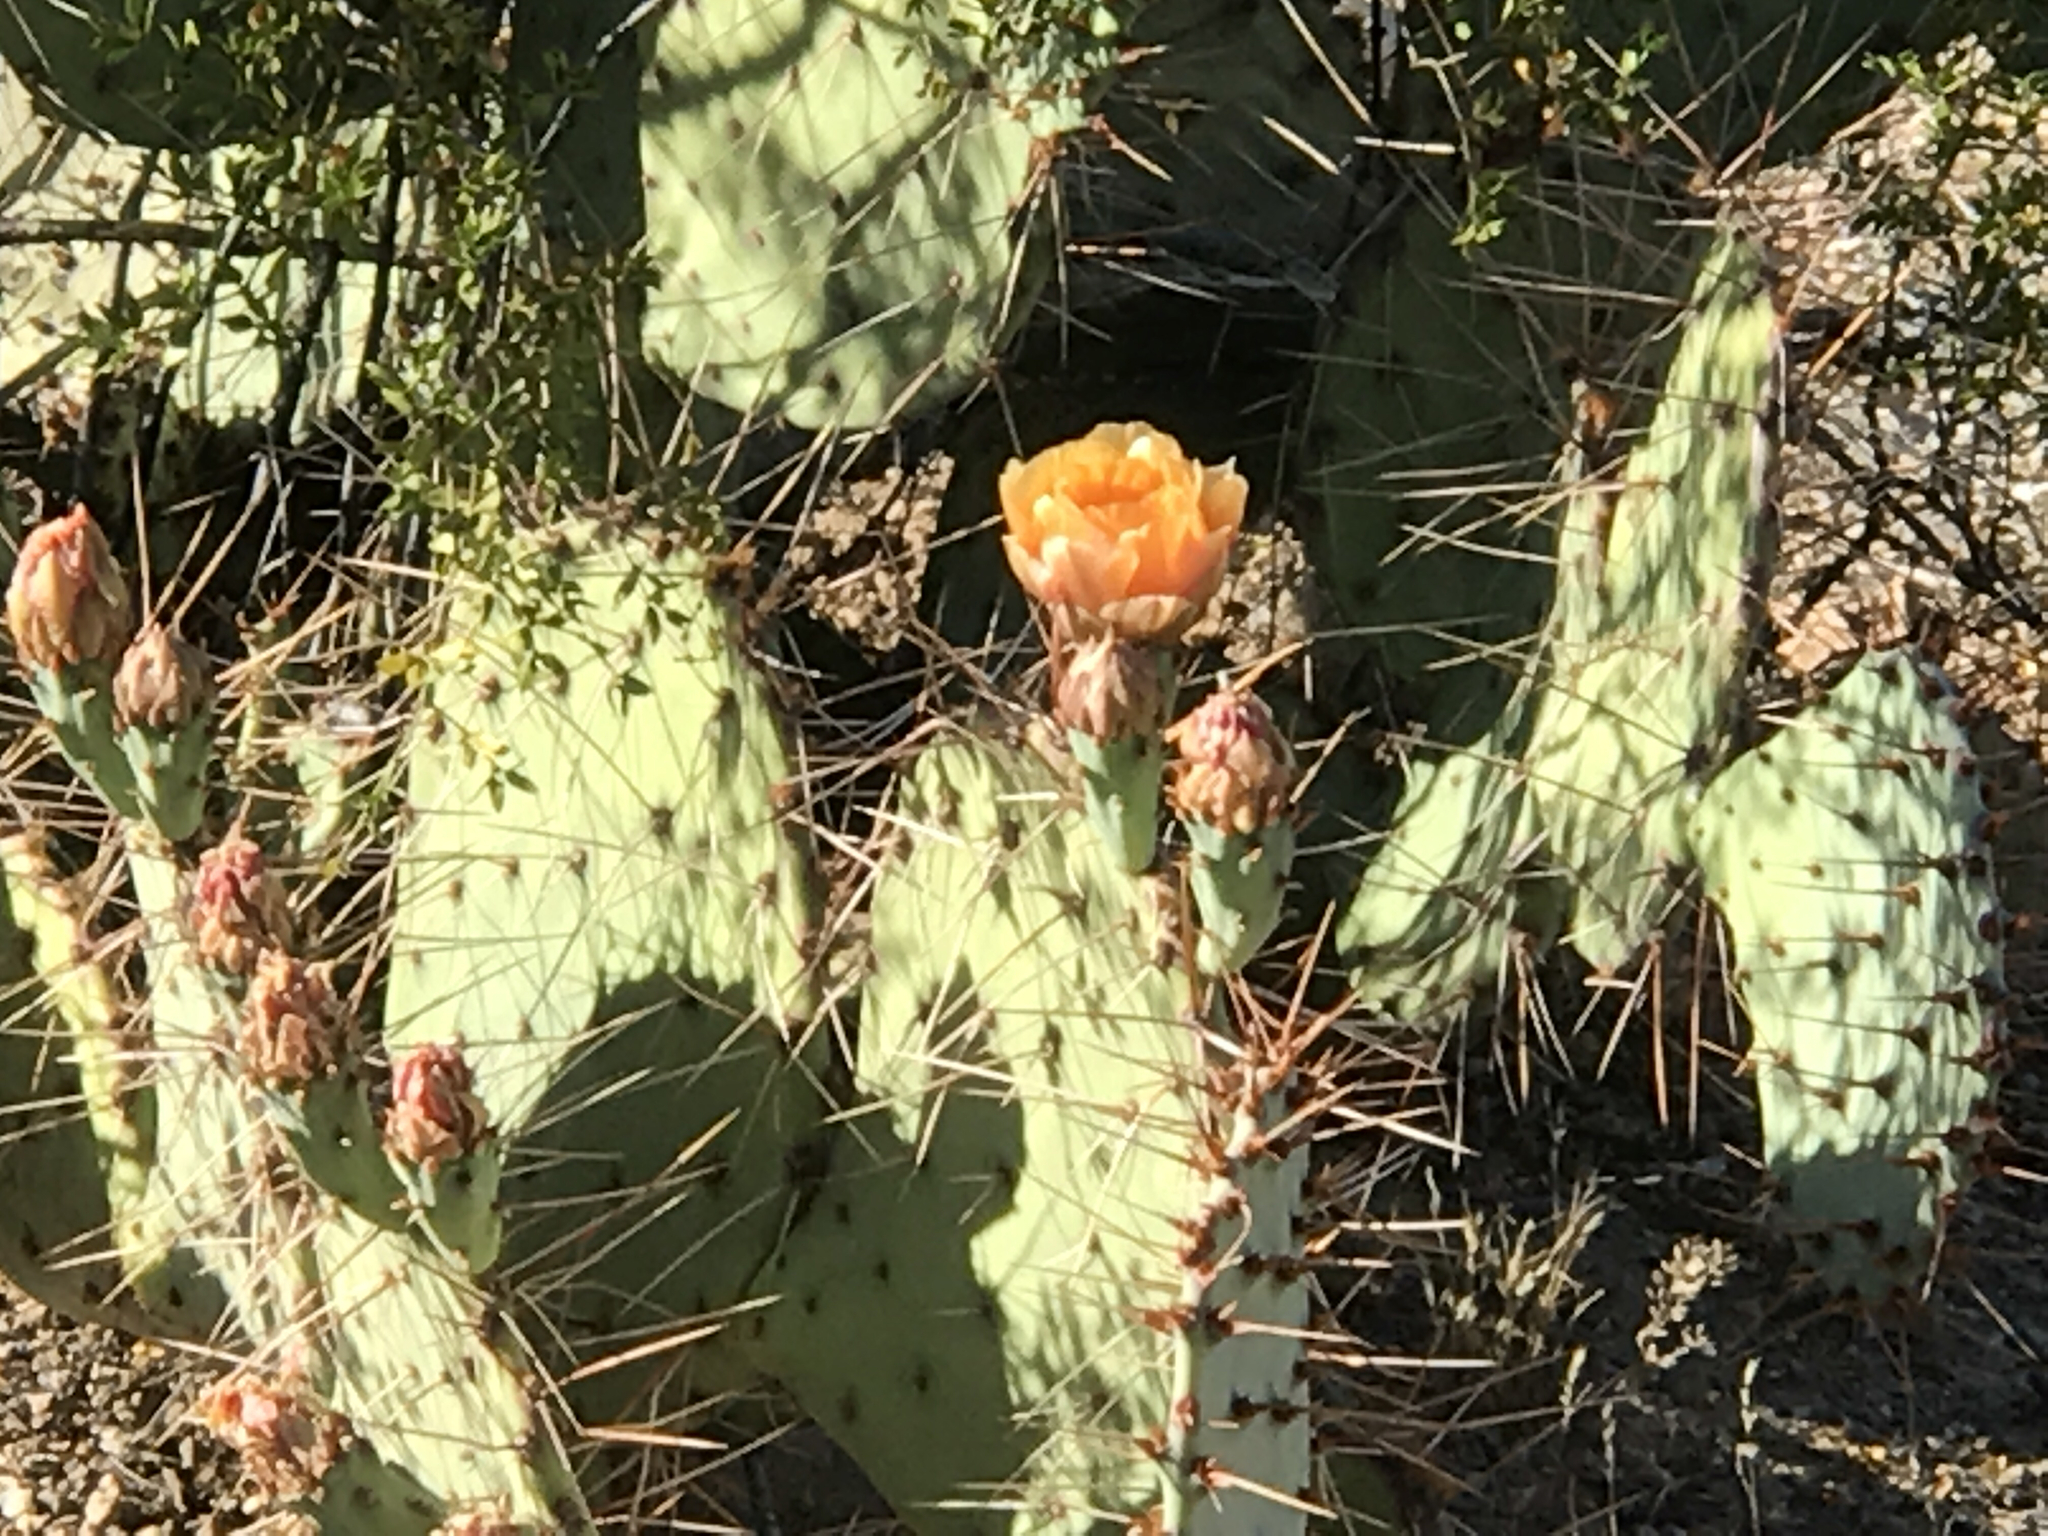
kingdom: Plantae
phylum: Tracheophyta
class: Magnoliopsida
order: Caryophyllales
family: Cactaceae
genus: Opuntia
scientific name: Opuntia engelmannii
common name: Cactus-apple
